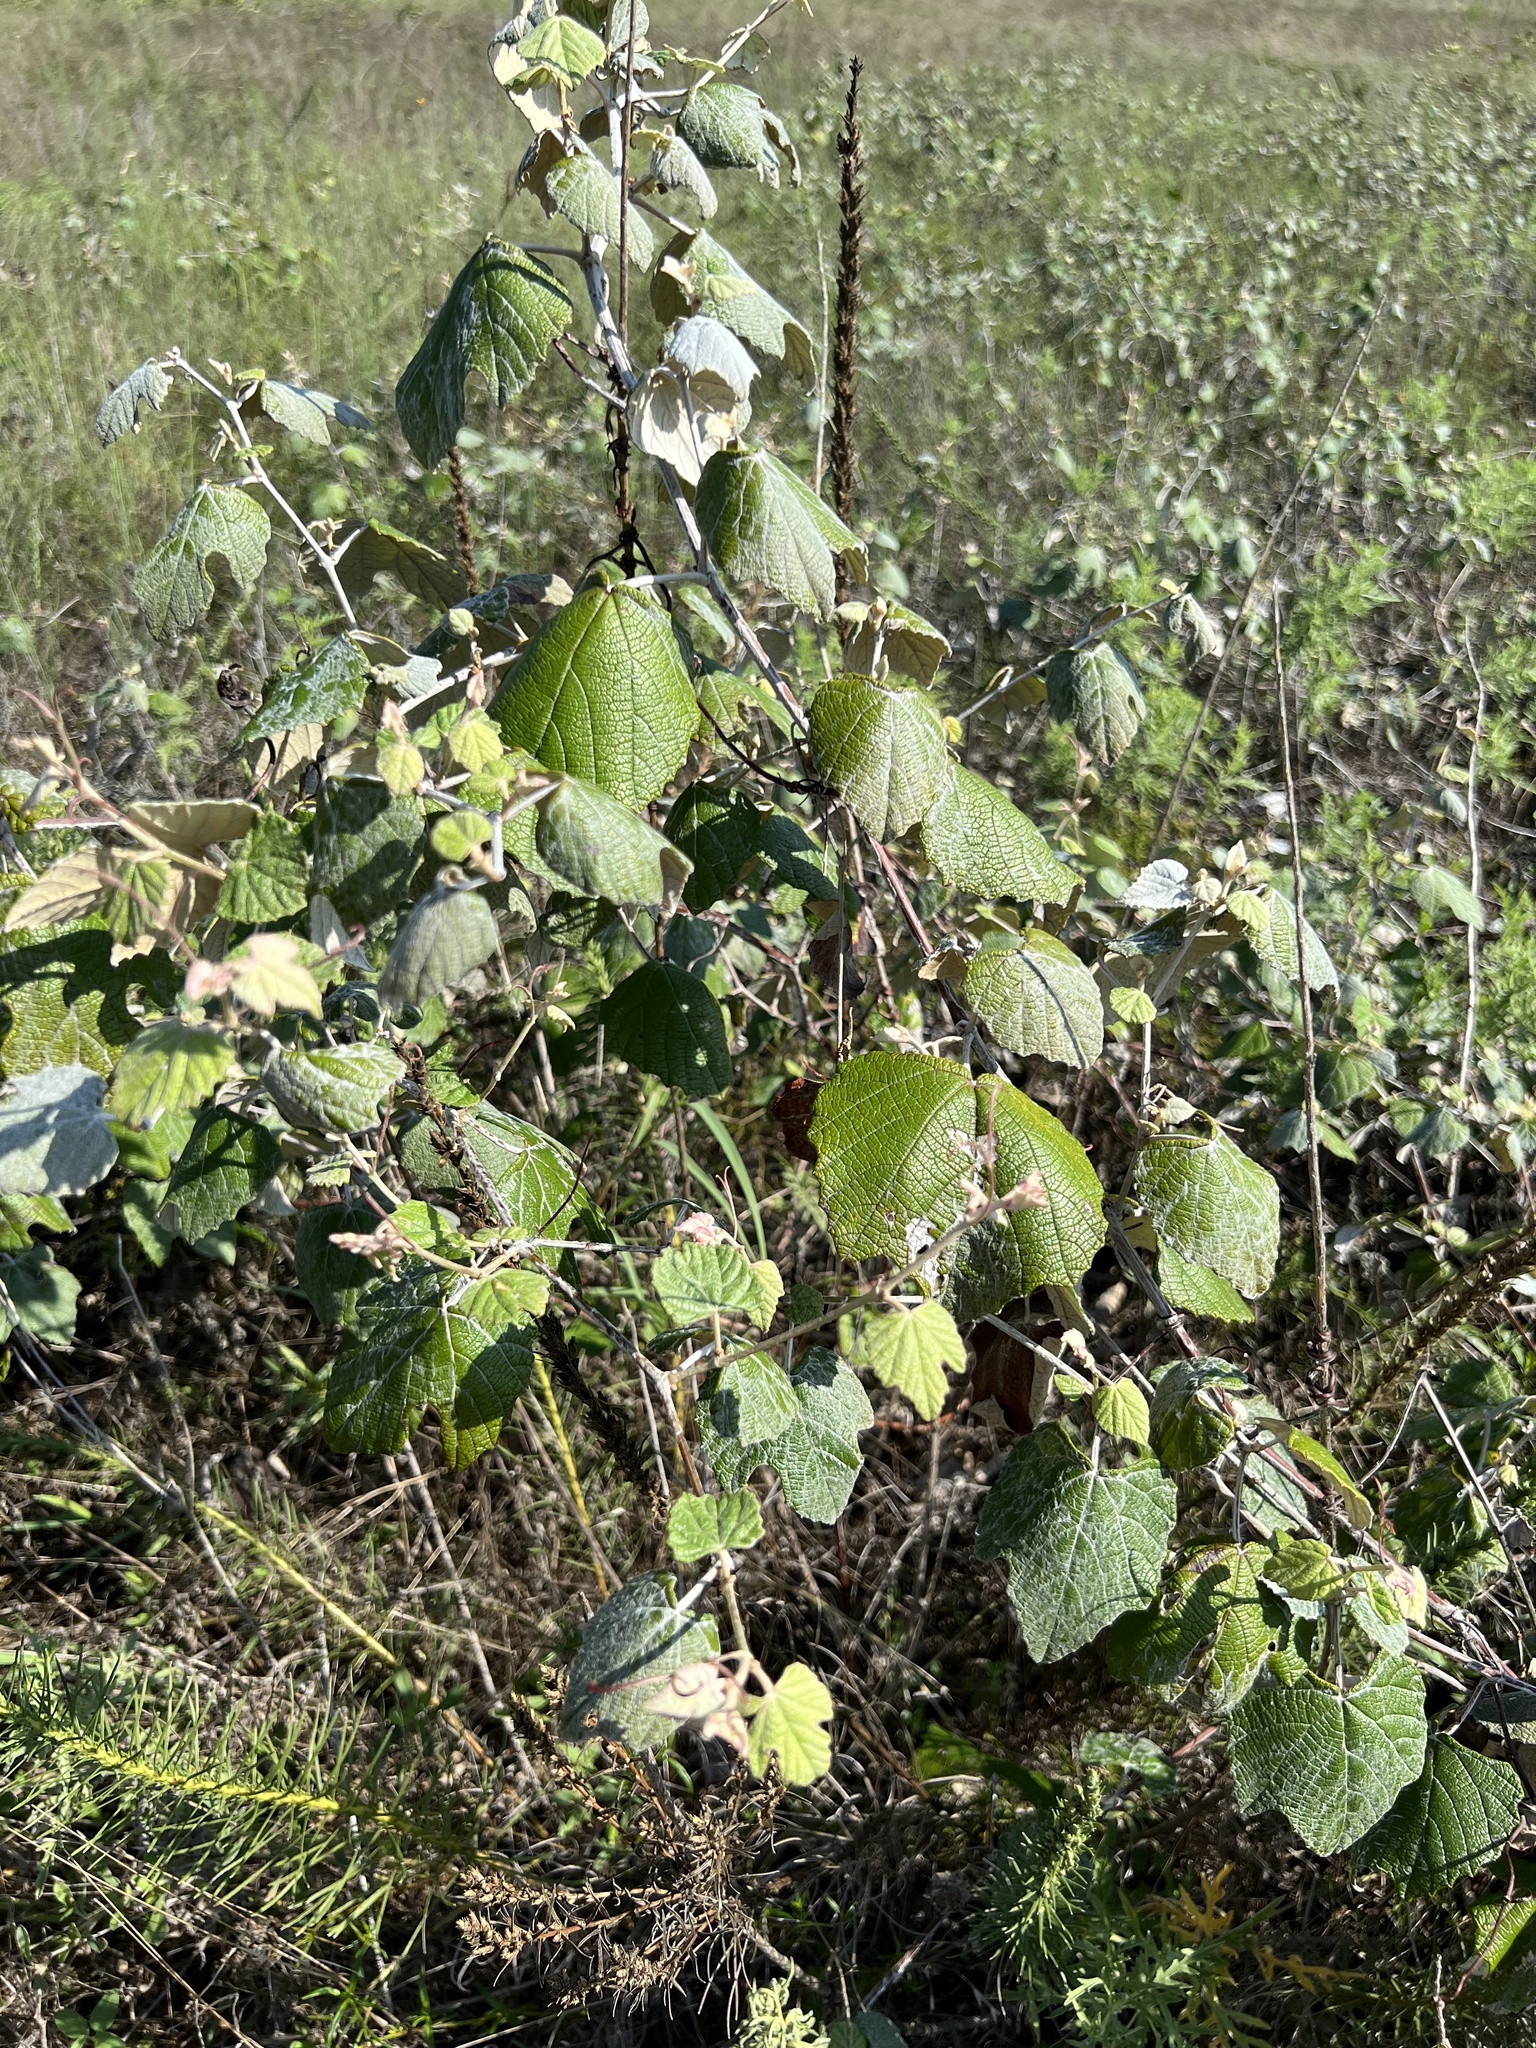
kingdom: Plantae
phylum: Tracheophyta
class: Magnoliopsida
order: Vitales
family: Vitaceae
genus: Vitis
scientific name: Vitis mustangensis
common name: Mustang grape
